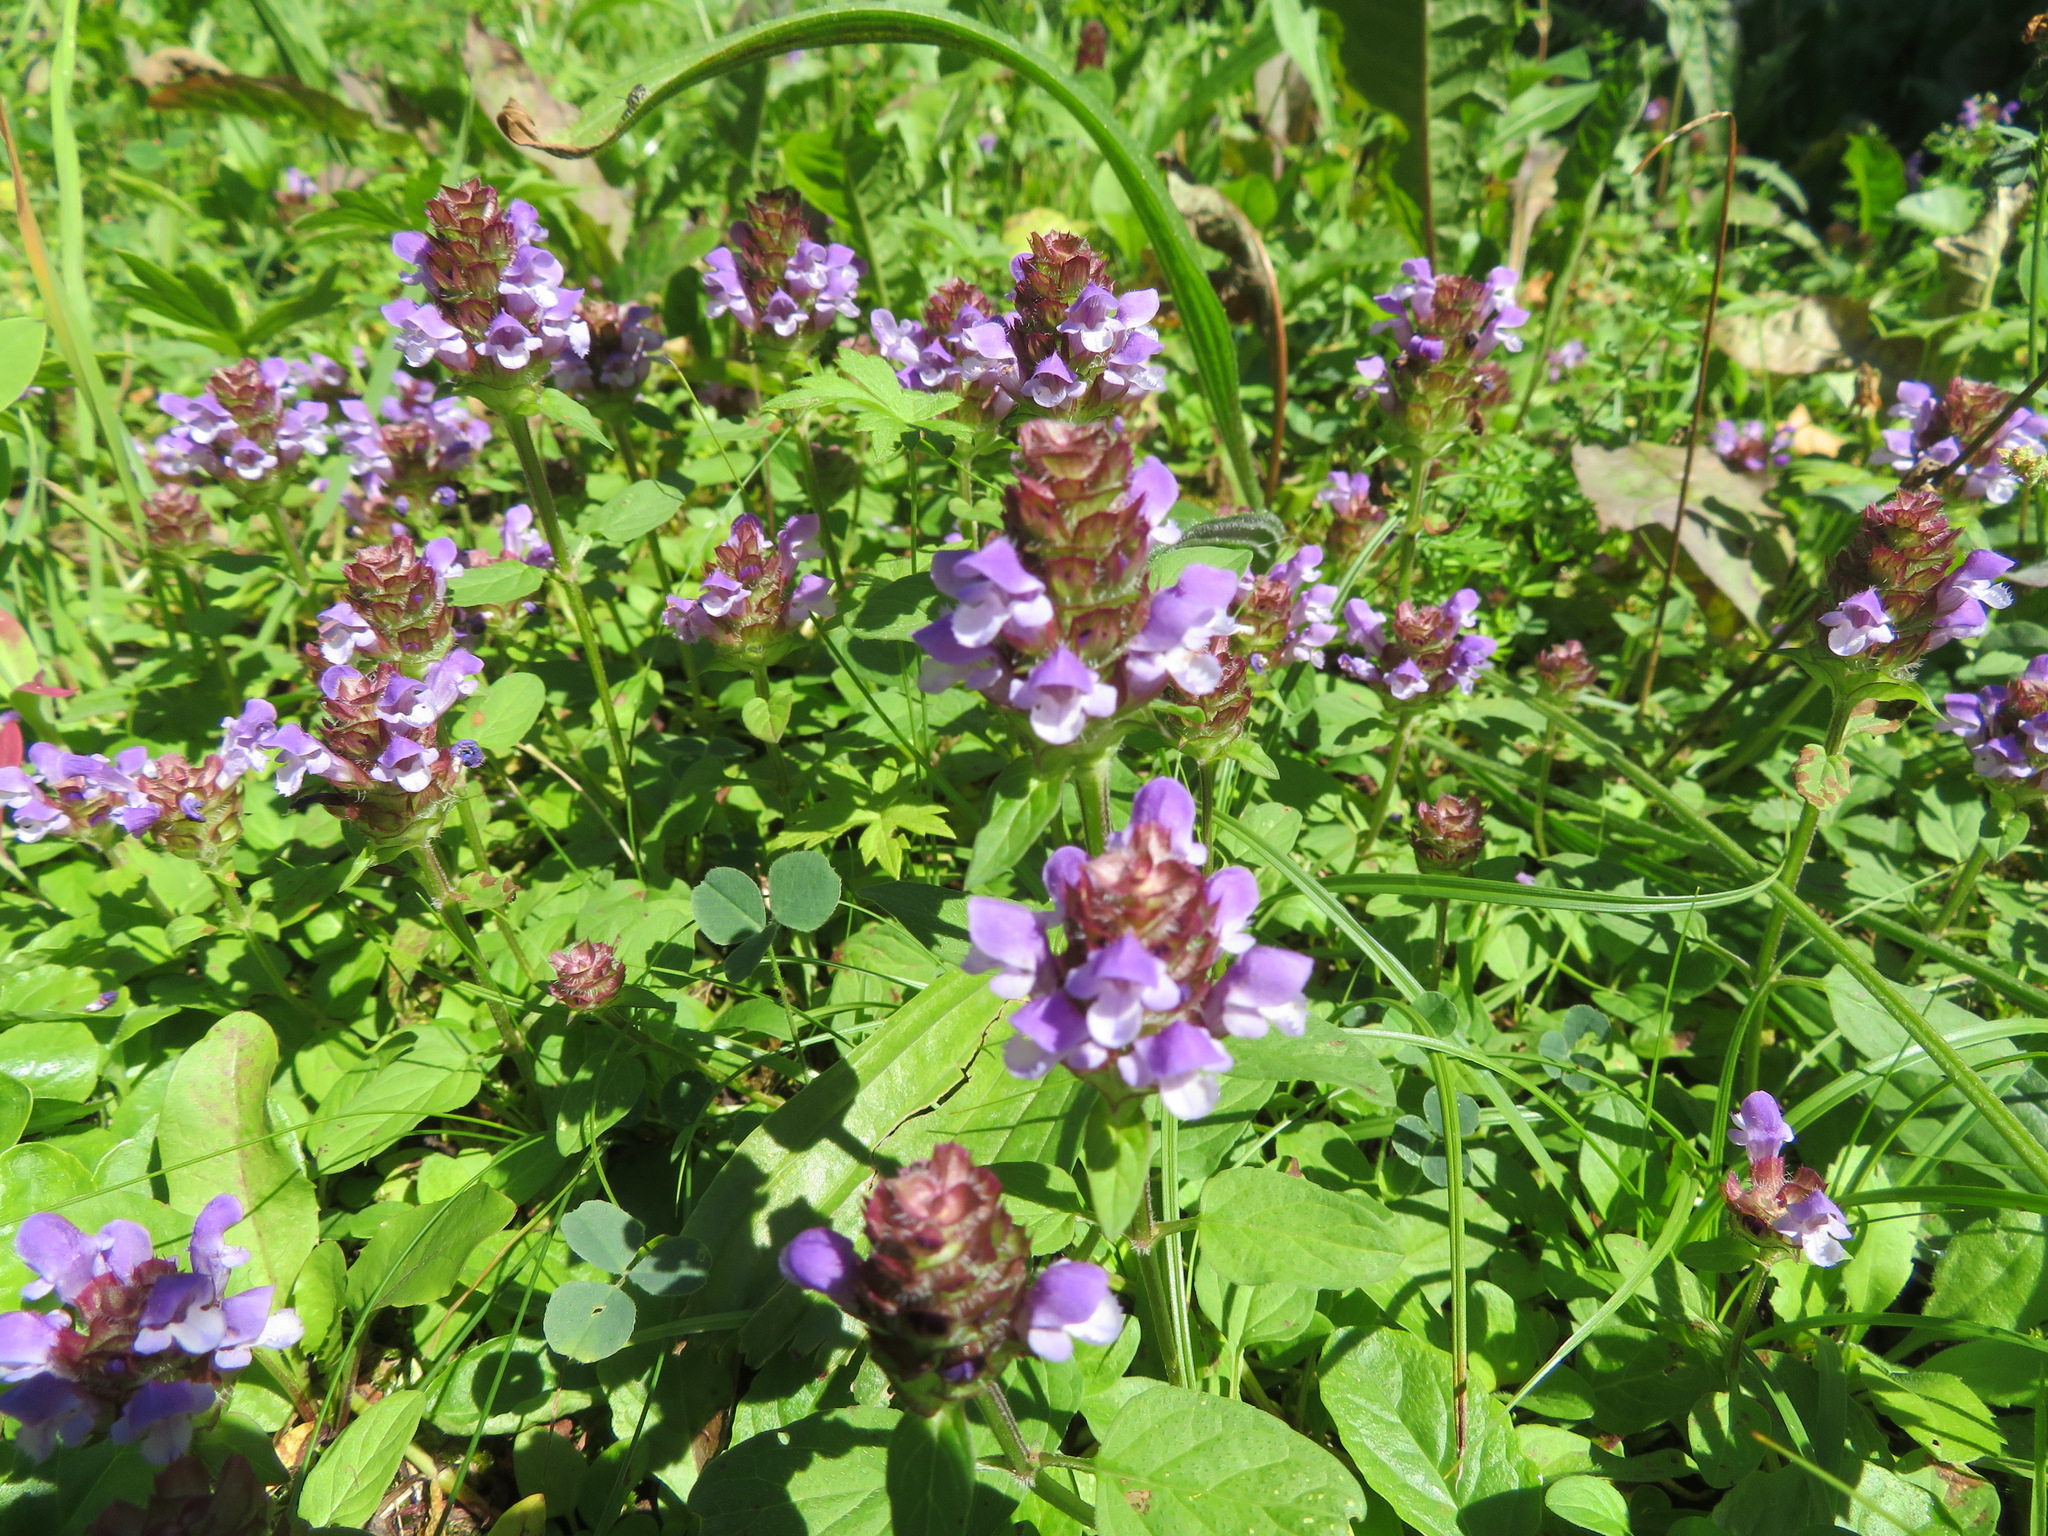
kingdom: Plantae
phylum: Tracheophyta
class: Magnoliopsida
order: Lamiales
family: Lamiaceae
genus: Prunella
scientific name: Prunella vulgaris
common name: Heal-all
